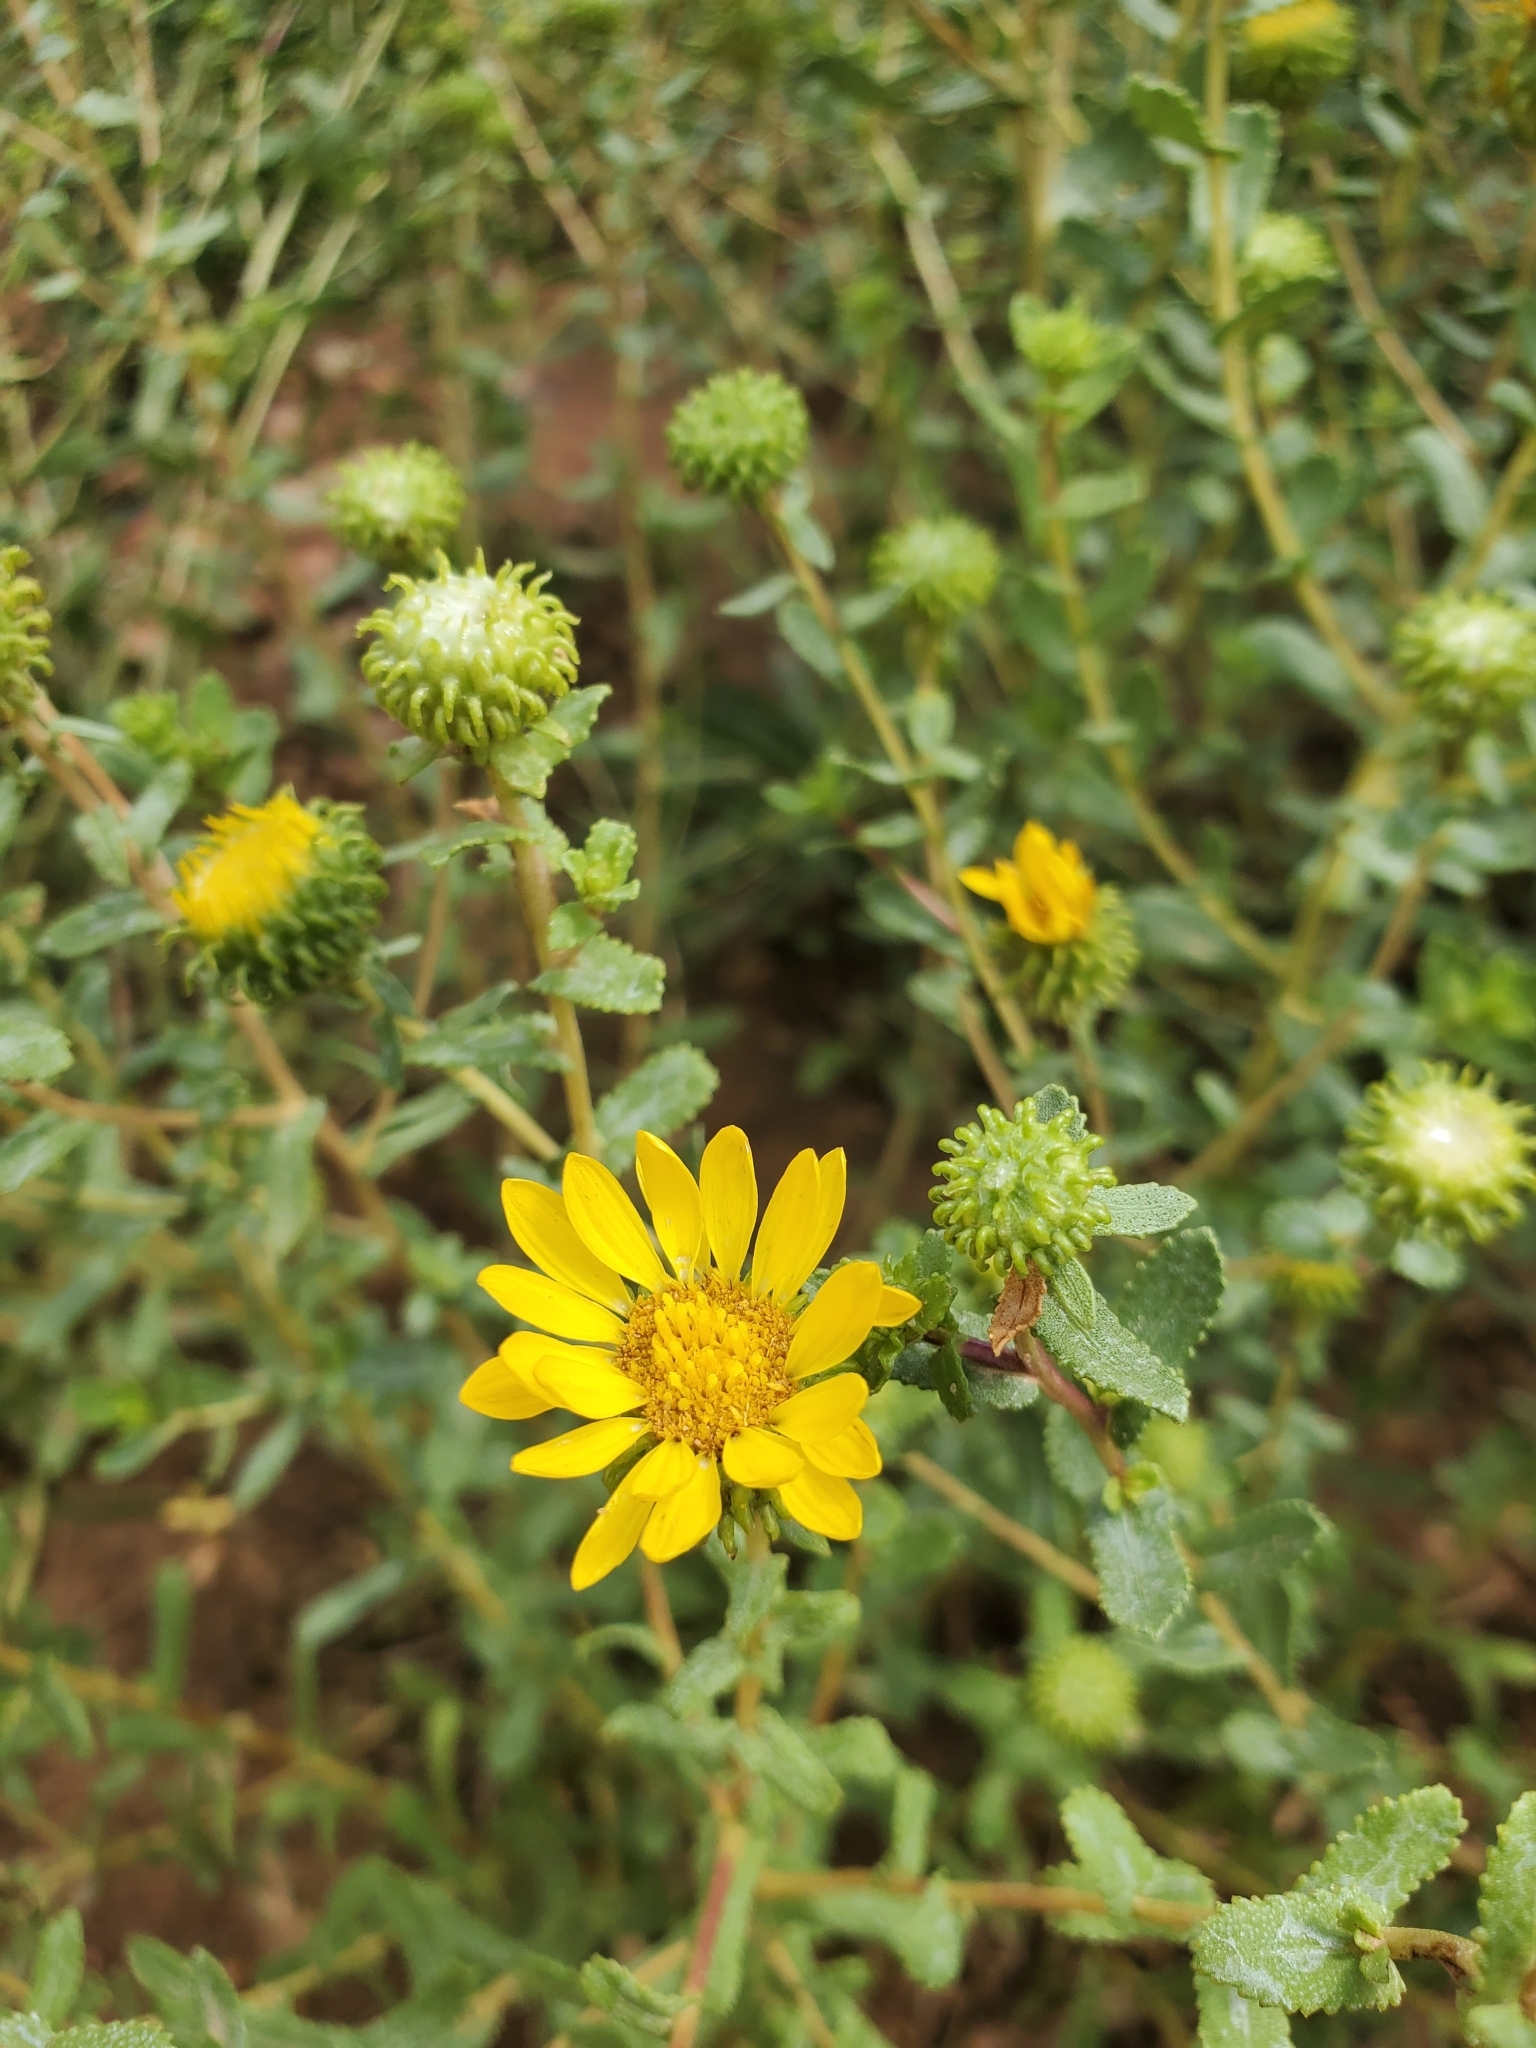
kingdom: Plantae
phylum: Tracheophyta
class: Magnoliopsida
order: Asterales
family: Asteraceae
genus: Grindelia
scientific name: Grindelia squarrosa
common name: Curly-cup gumweed
